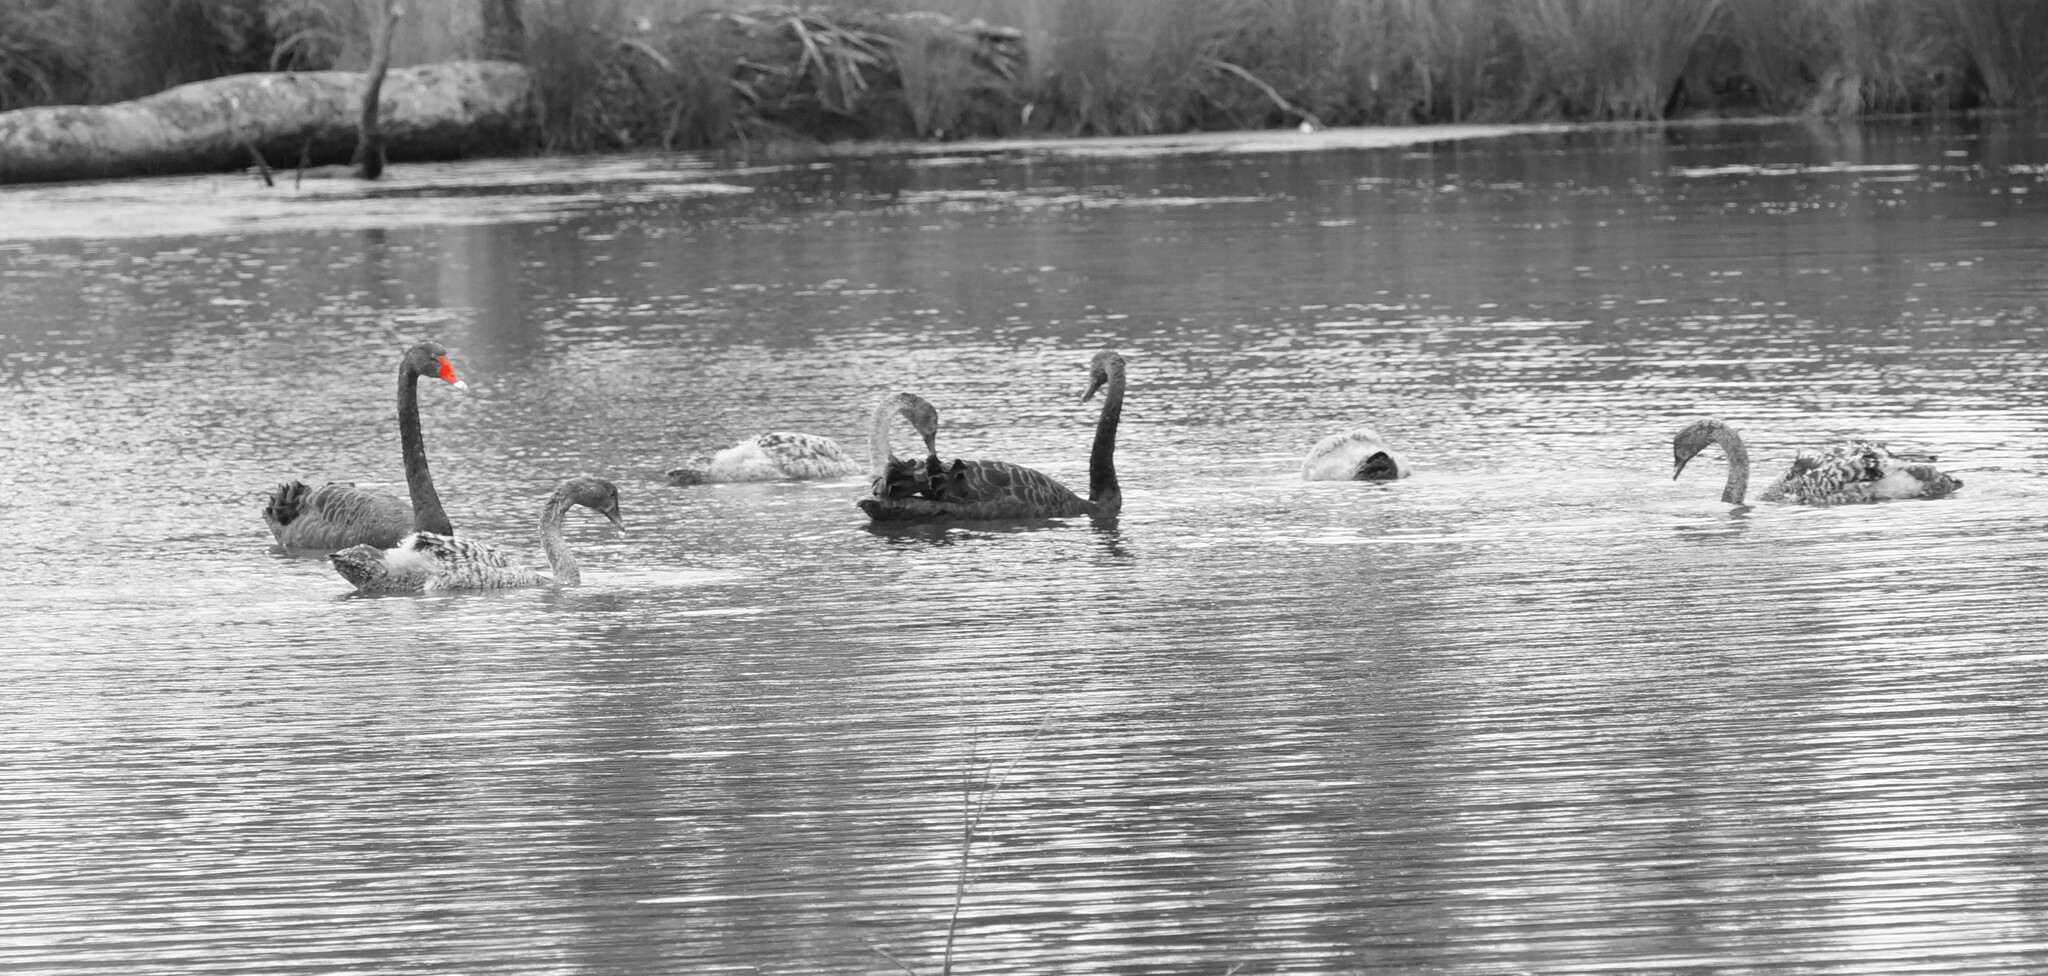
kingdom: Animalia
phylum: Chordata
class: Aves
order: Anseriformes
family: Anatidae
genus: Cygnus
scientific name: Cygnus atratus
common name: Black swan
